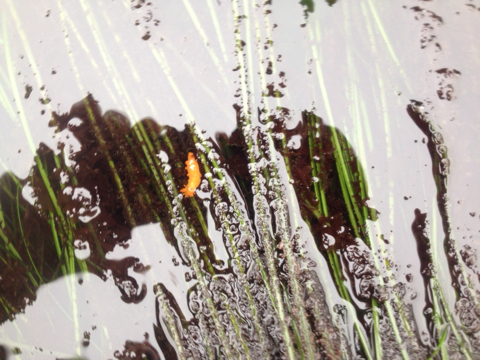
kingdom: Animalia
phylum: Mollusca
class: Gastropoda
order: Nudibranchia
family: Polyceridae
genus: Triopha
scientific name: Triopha maculata
